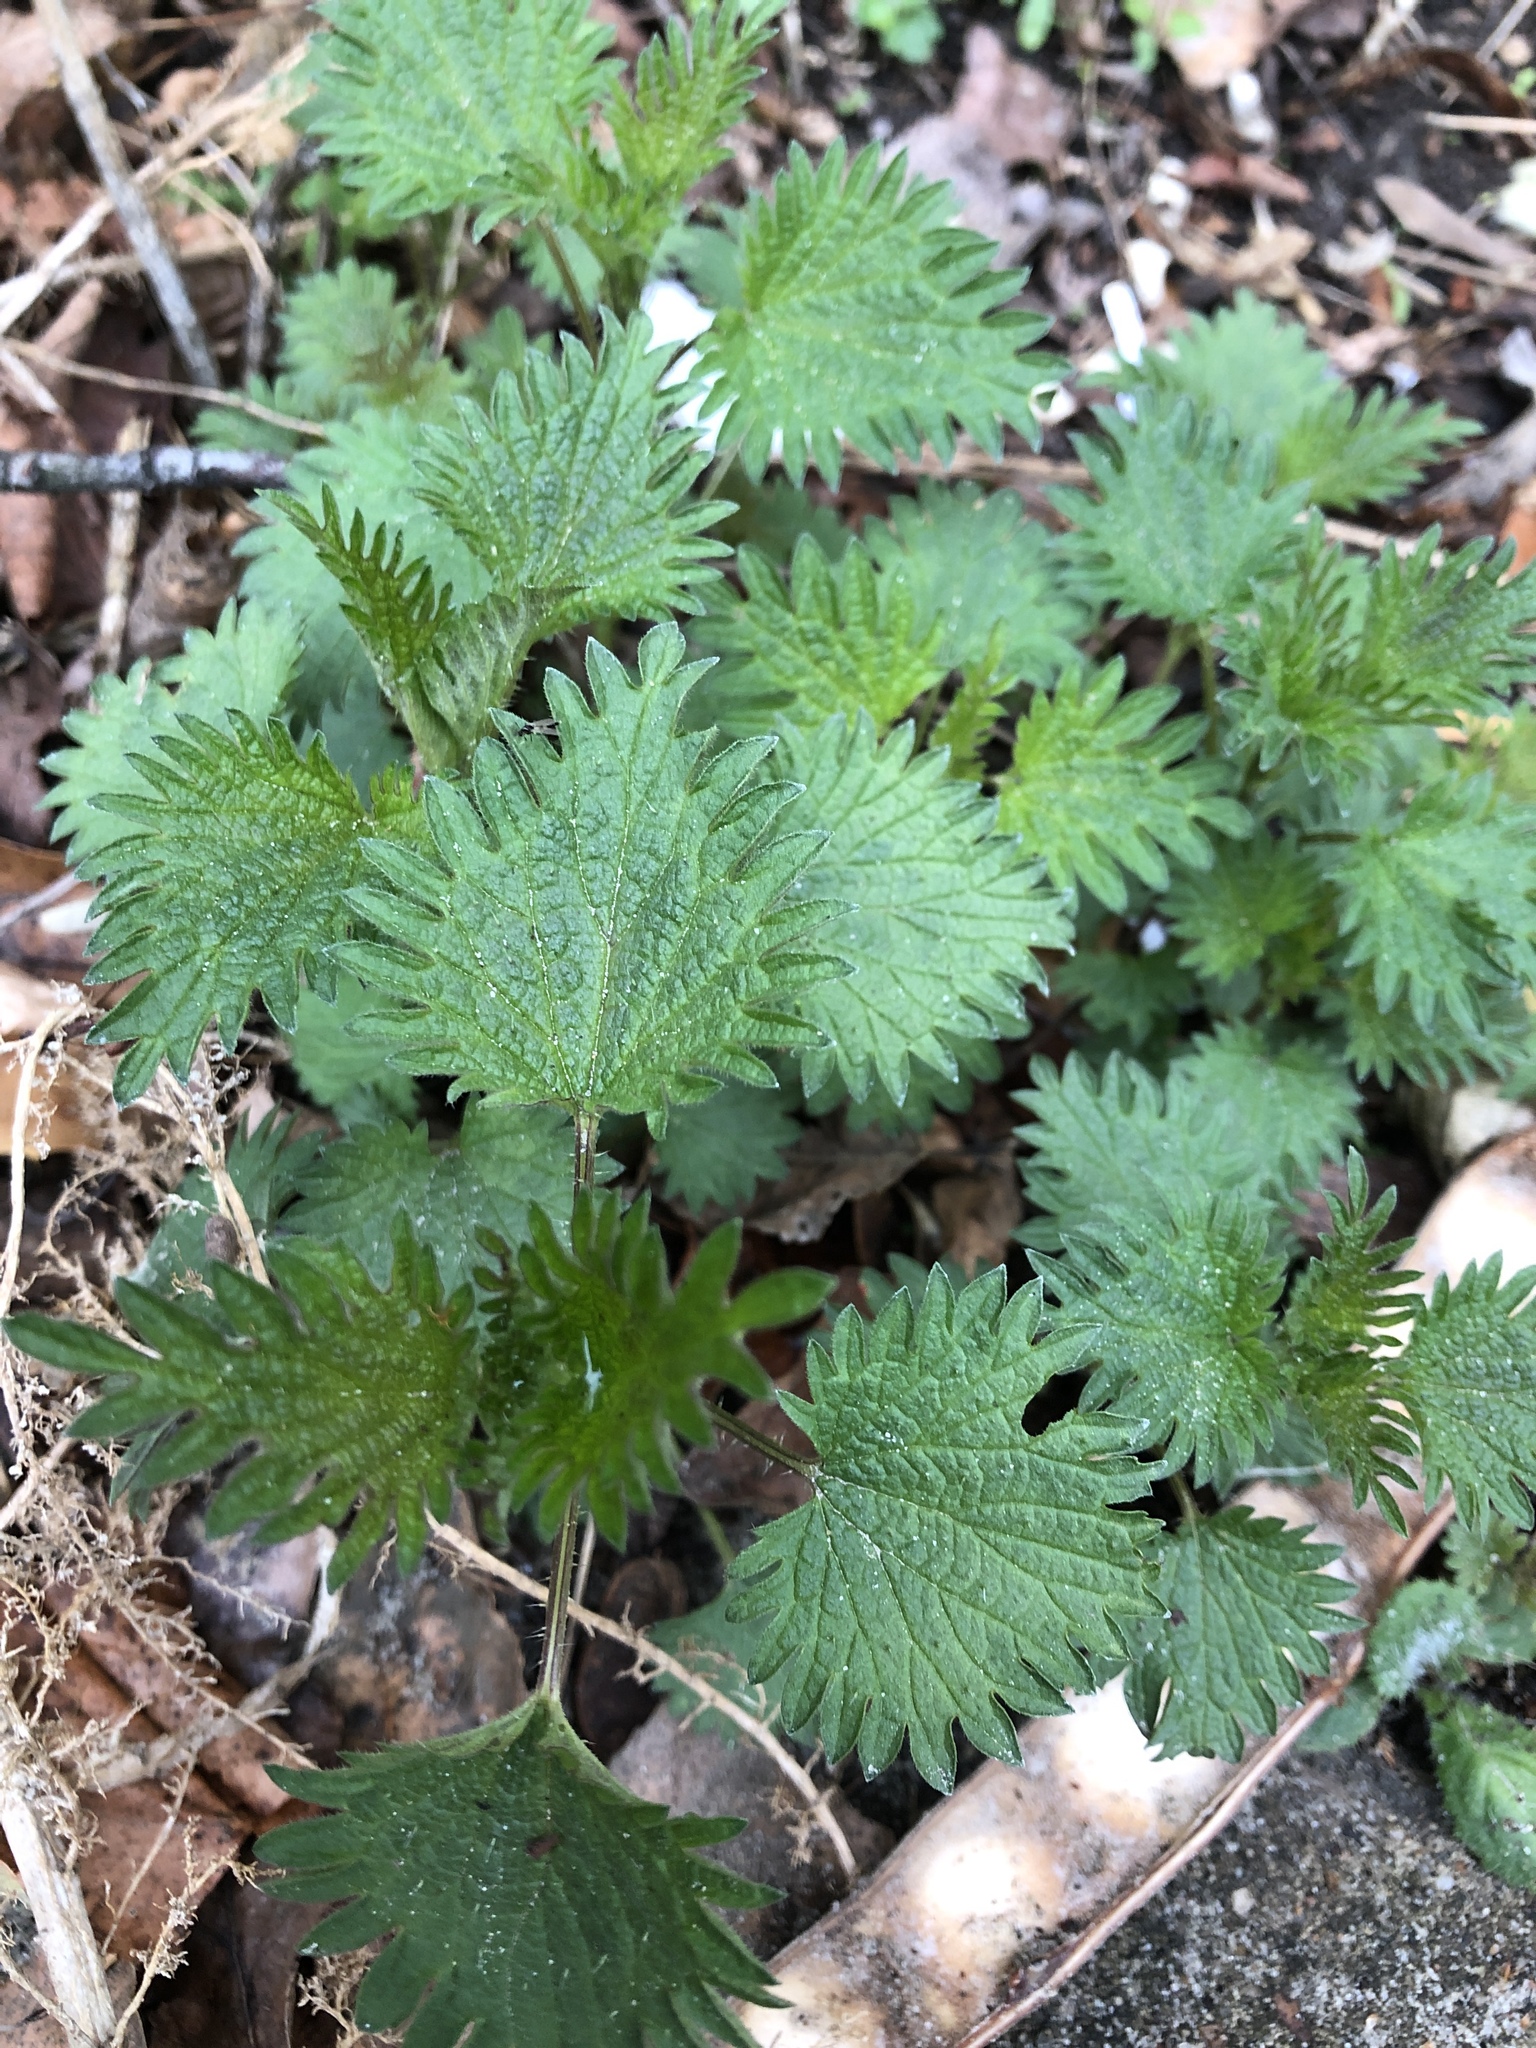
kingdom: Plantae
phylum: Tracheophyta
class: Magnoliopsida
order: Rosales
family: Urticaceae
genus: Urtica
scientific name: Urtica urens
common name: Dwarf nettle
